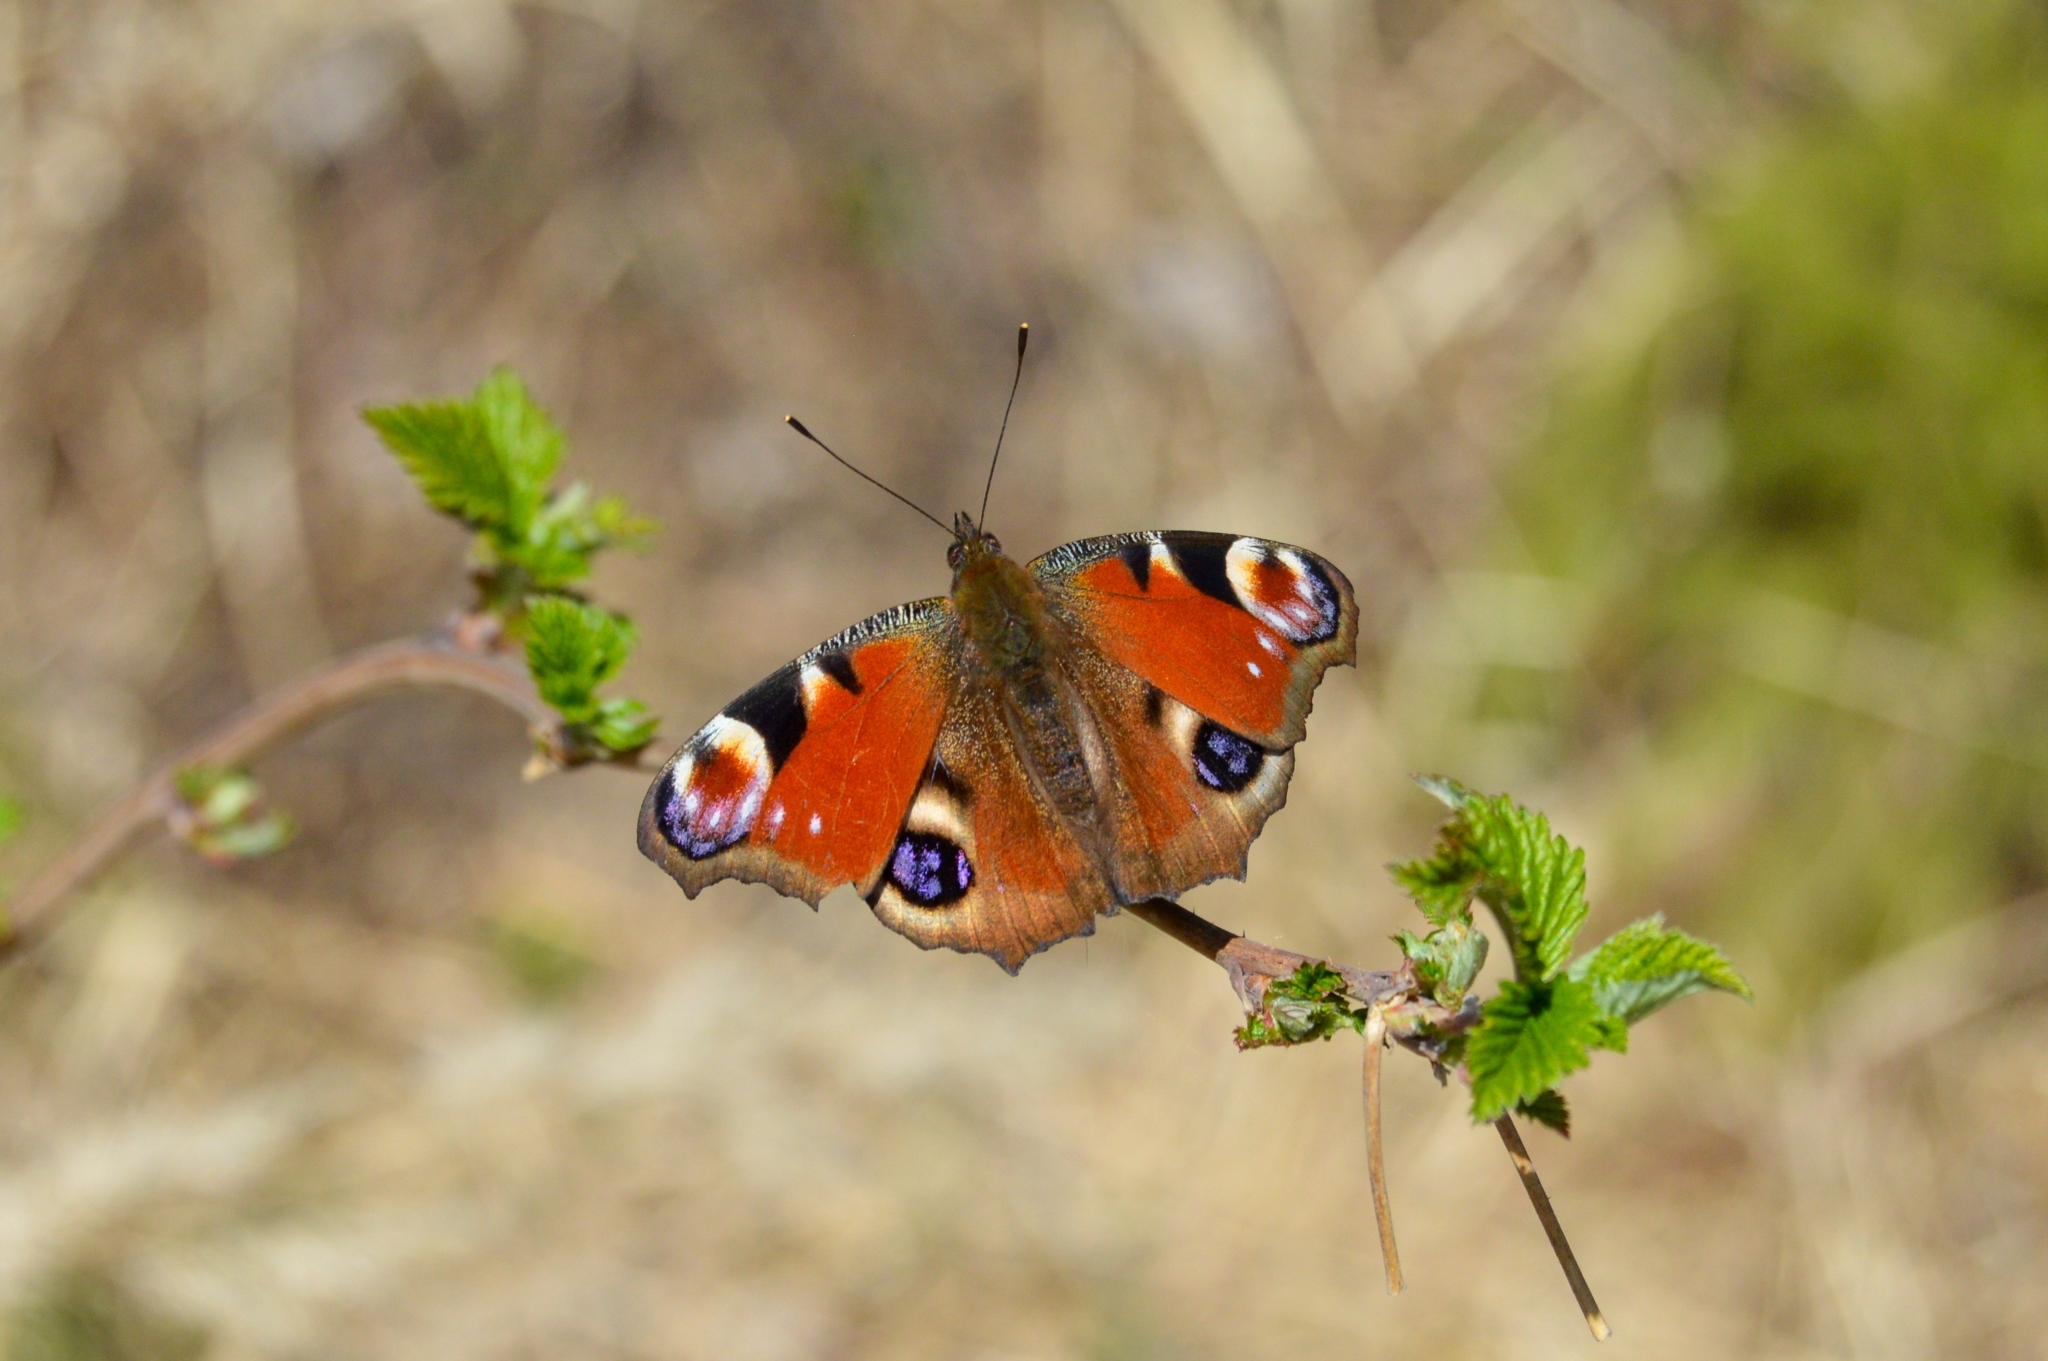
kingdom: Animalia
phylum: Arthropoda
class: Insecta
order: Lepidoptera
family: Nymphalidae
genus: Aglais
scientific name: Aglais io
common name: Peacock
